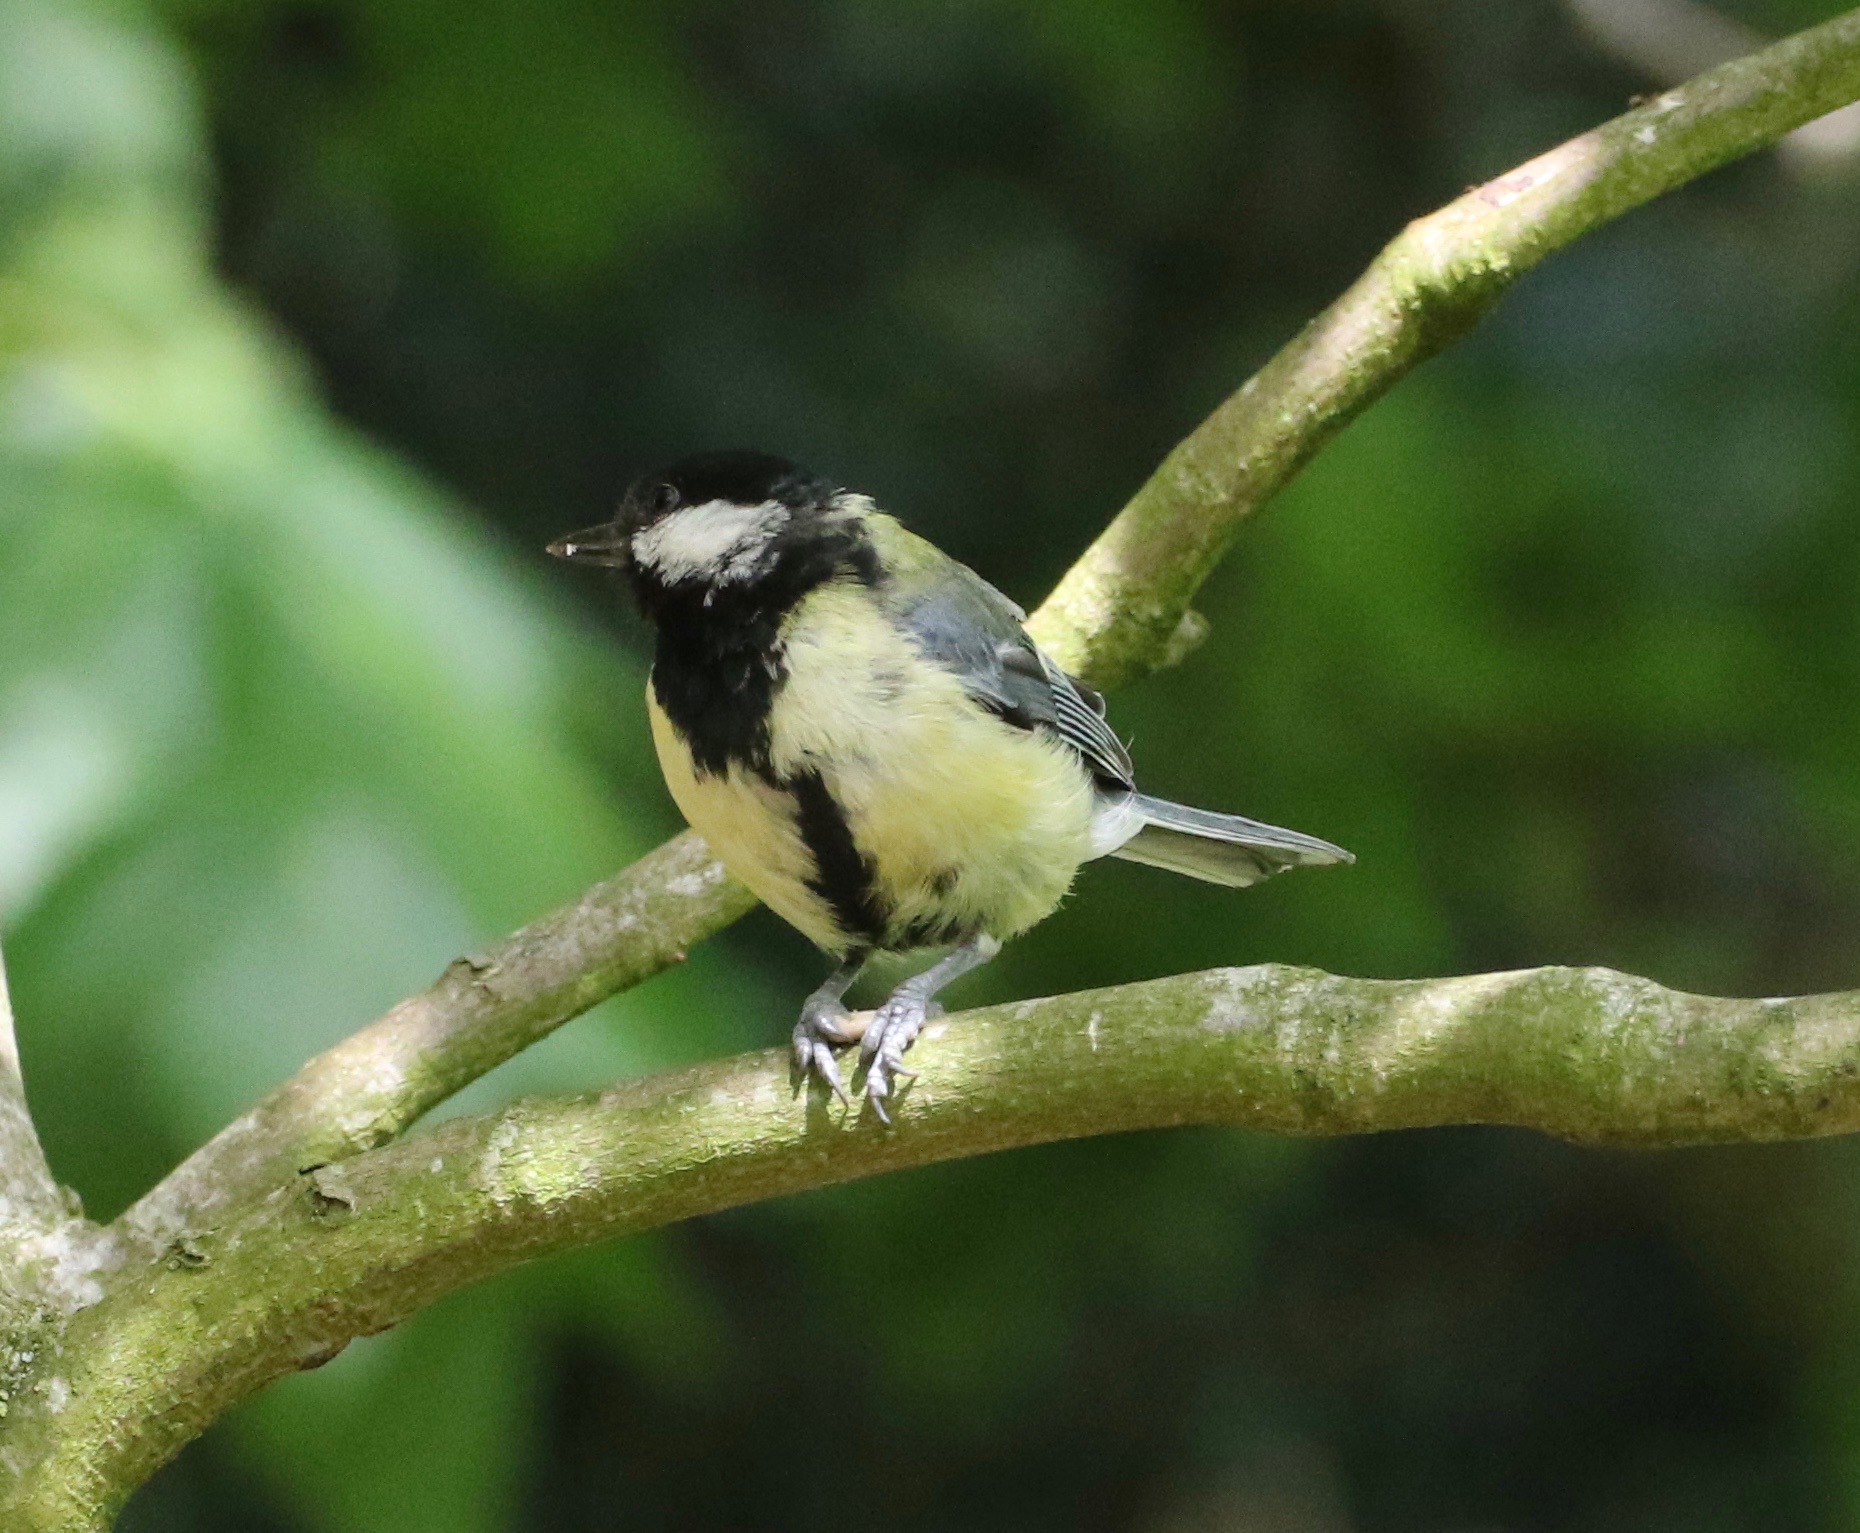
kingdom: Animalia
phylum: Chordata
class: Aves
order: Passeriformes
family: Paridae
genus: Parus
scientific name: Parus major
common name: Great tit
